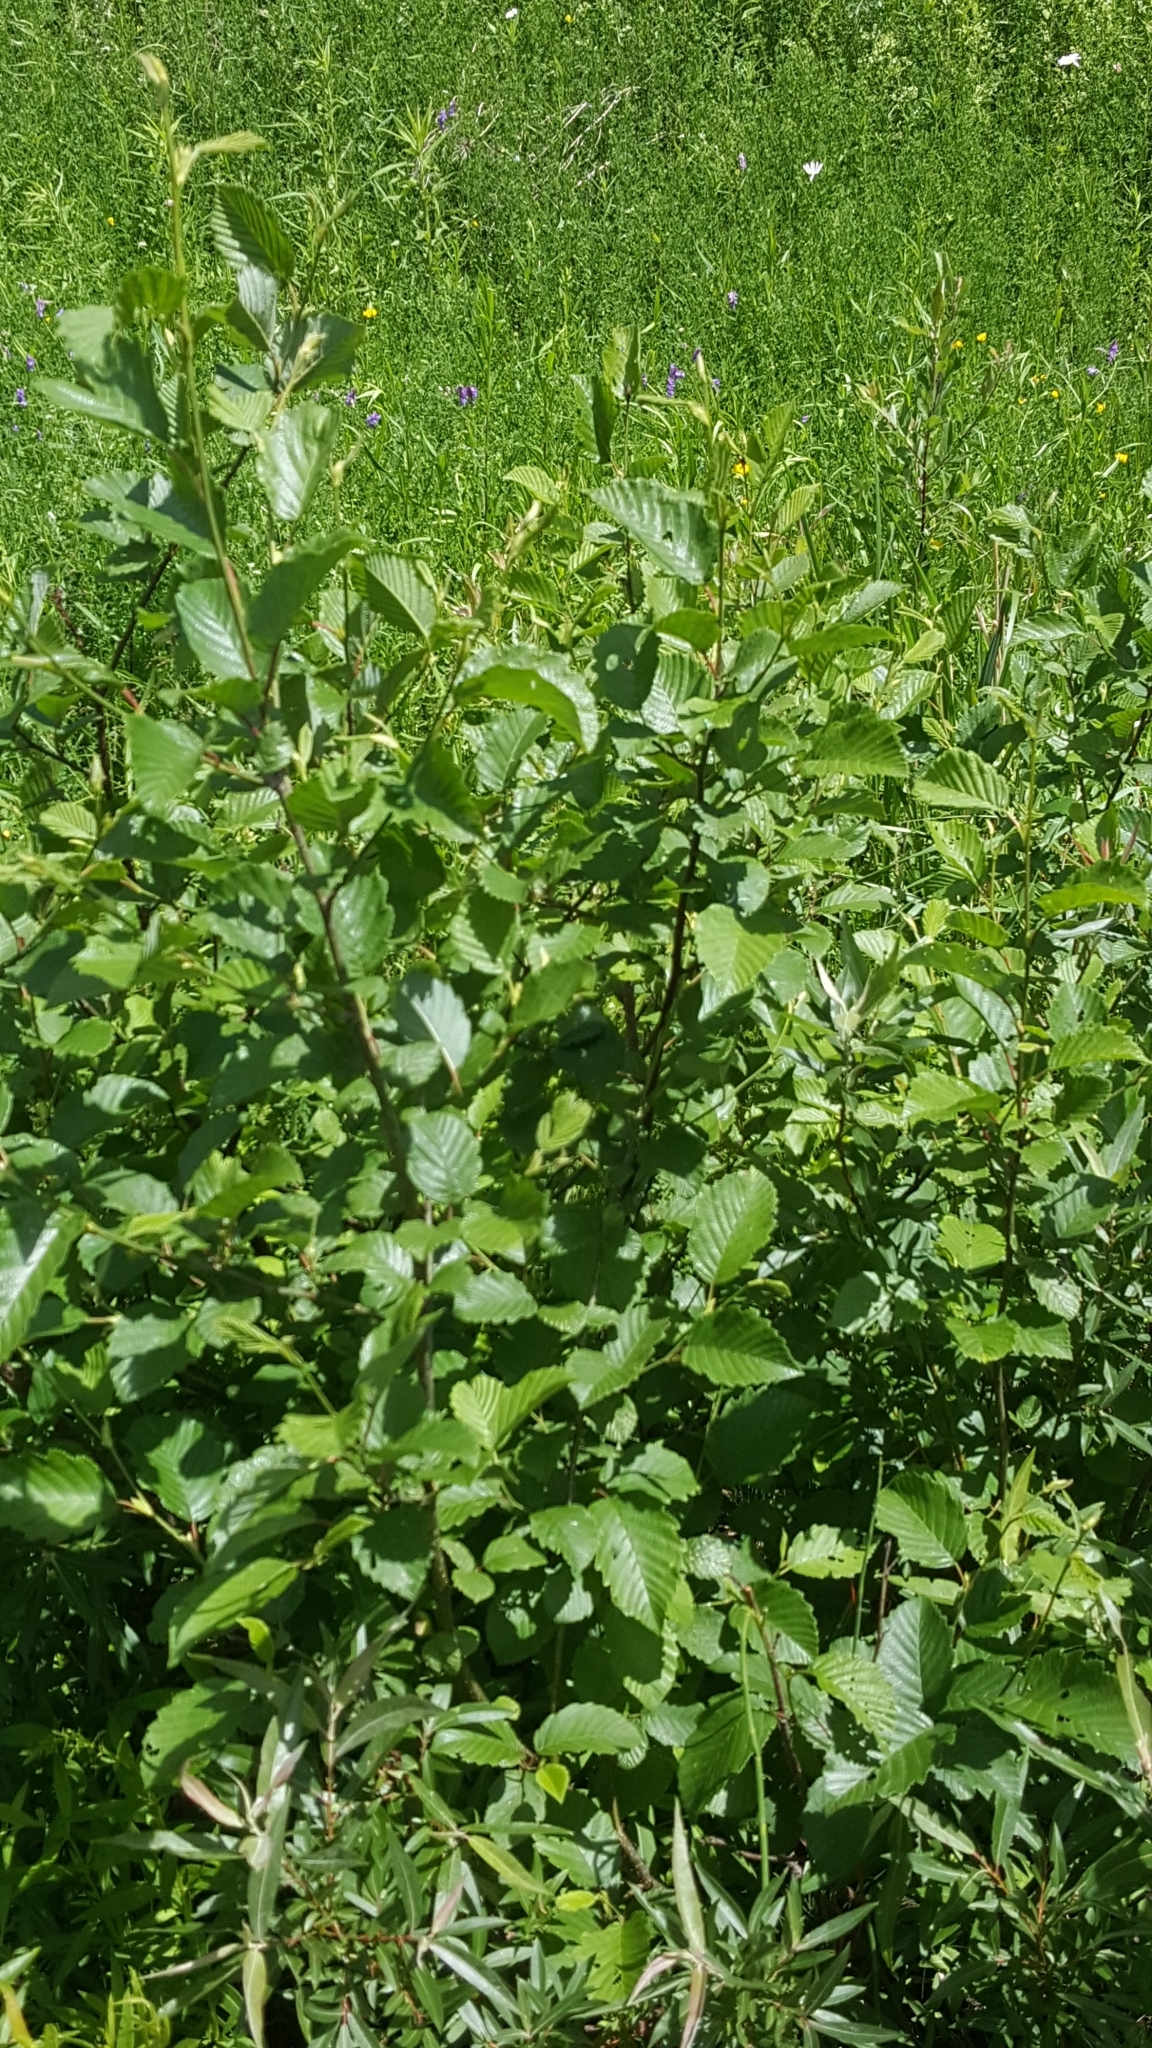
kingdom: Plantae
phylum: Tracheophyta
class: Magnoliopsida
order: Fagales
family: Betulaceae
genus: Alnus
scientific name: Alnus incana
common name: Grey alder
